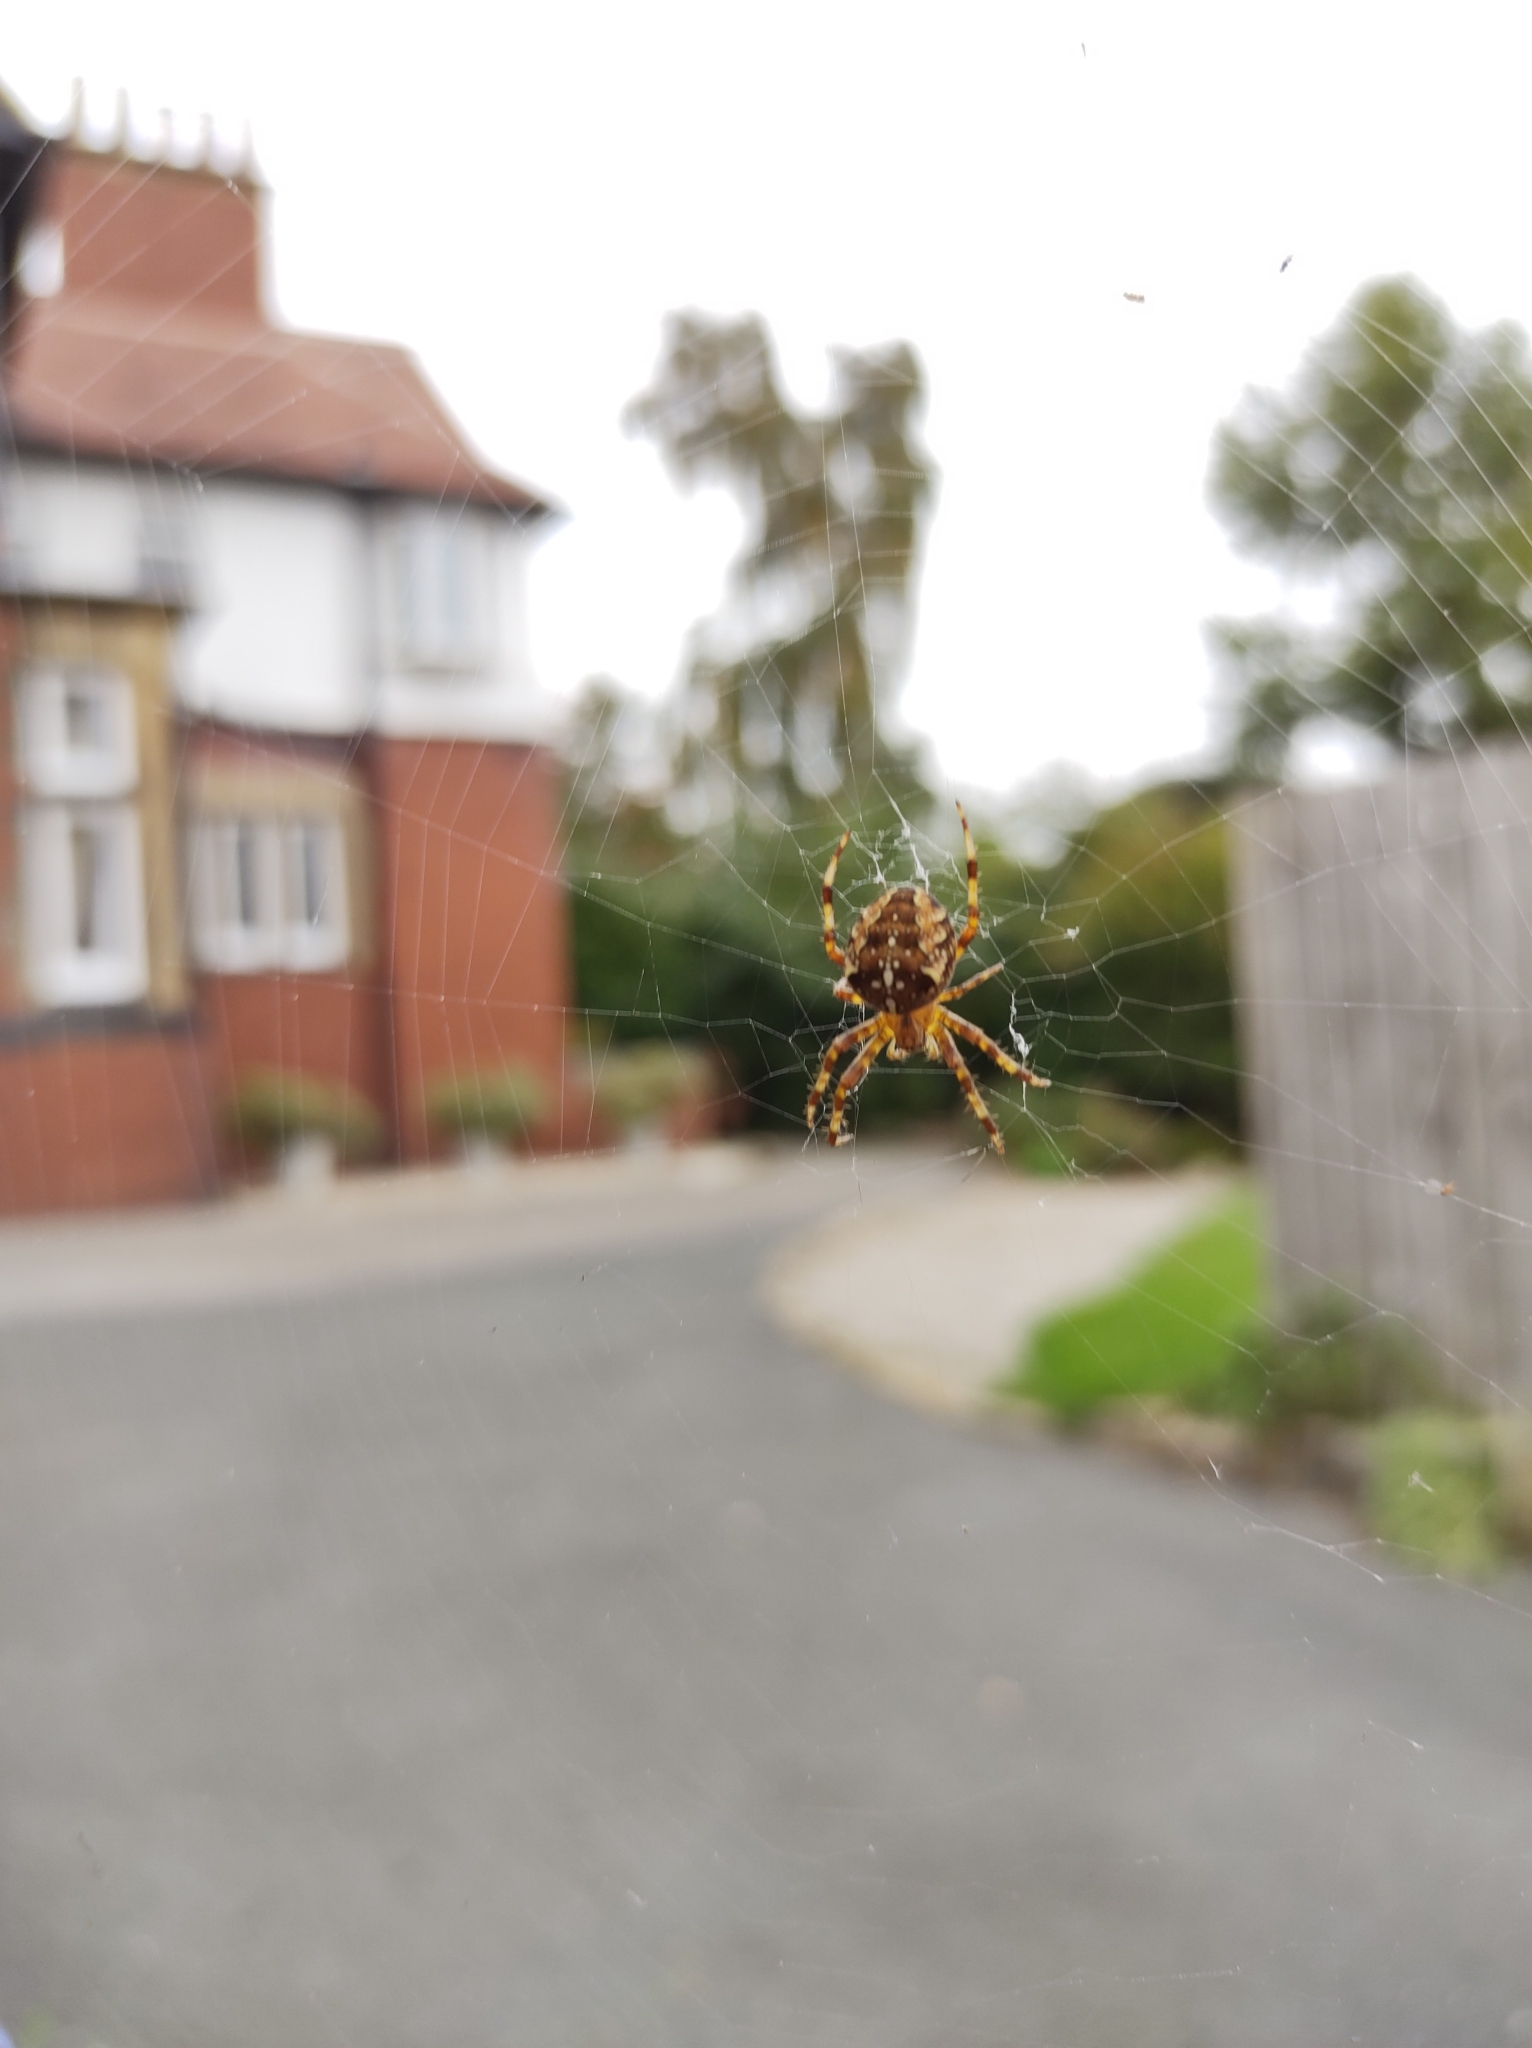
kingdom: Animalia
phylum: Arthropoda
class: Arachnida
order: Araneae
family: Araneidae
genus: Araneus
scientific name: Araneus diadematus
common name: Cross orbweaver
